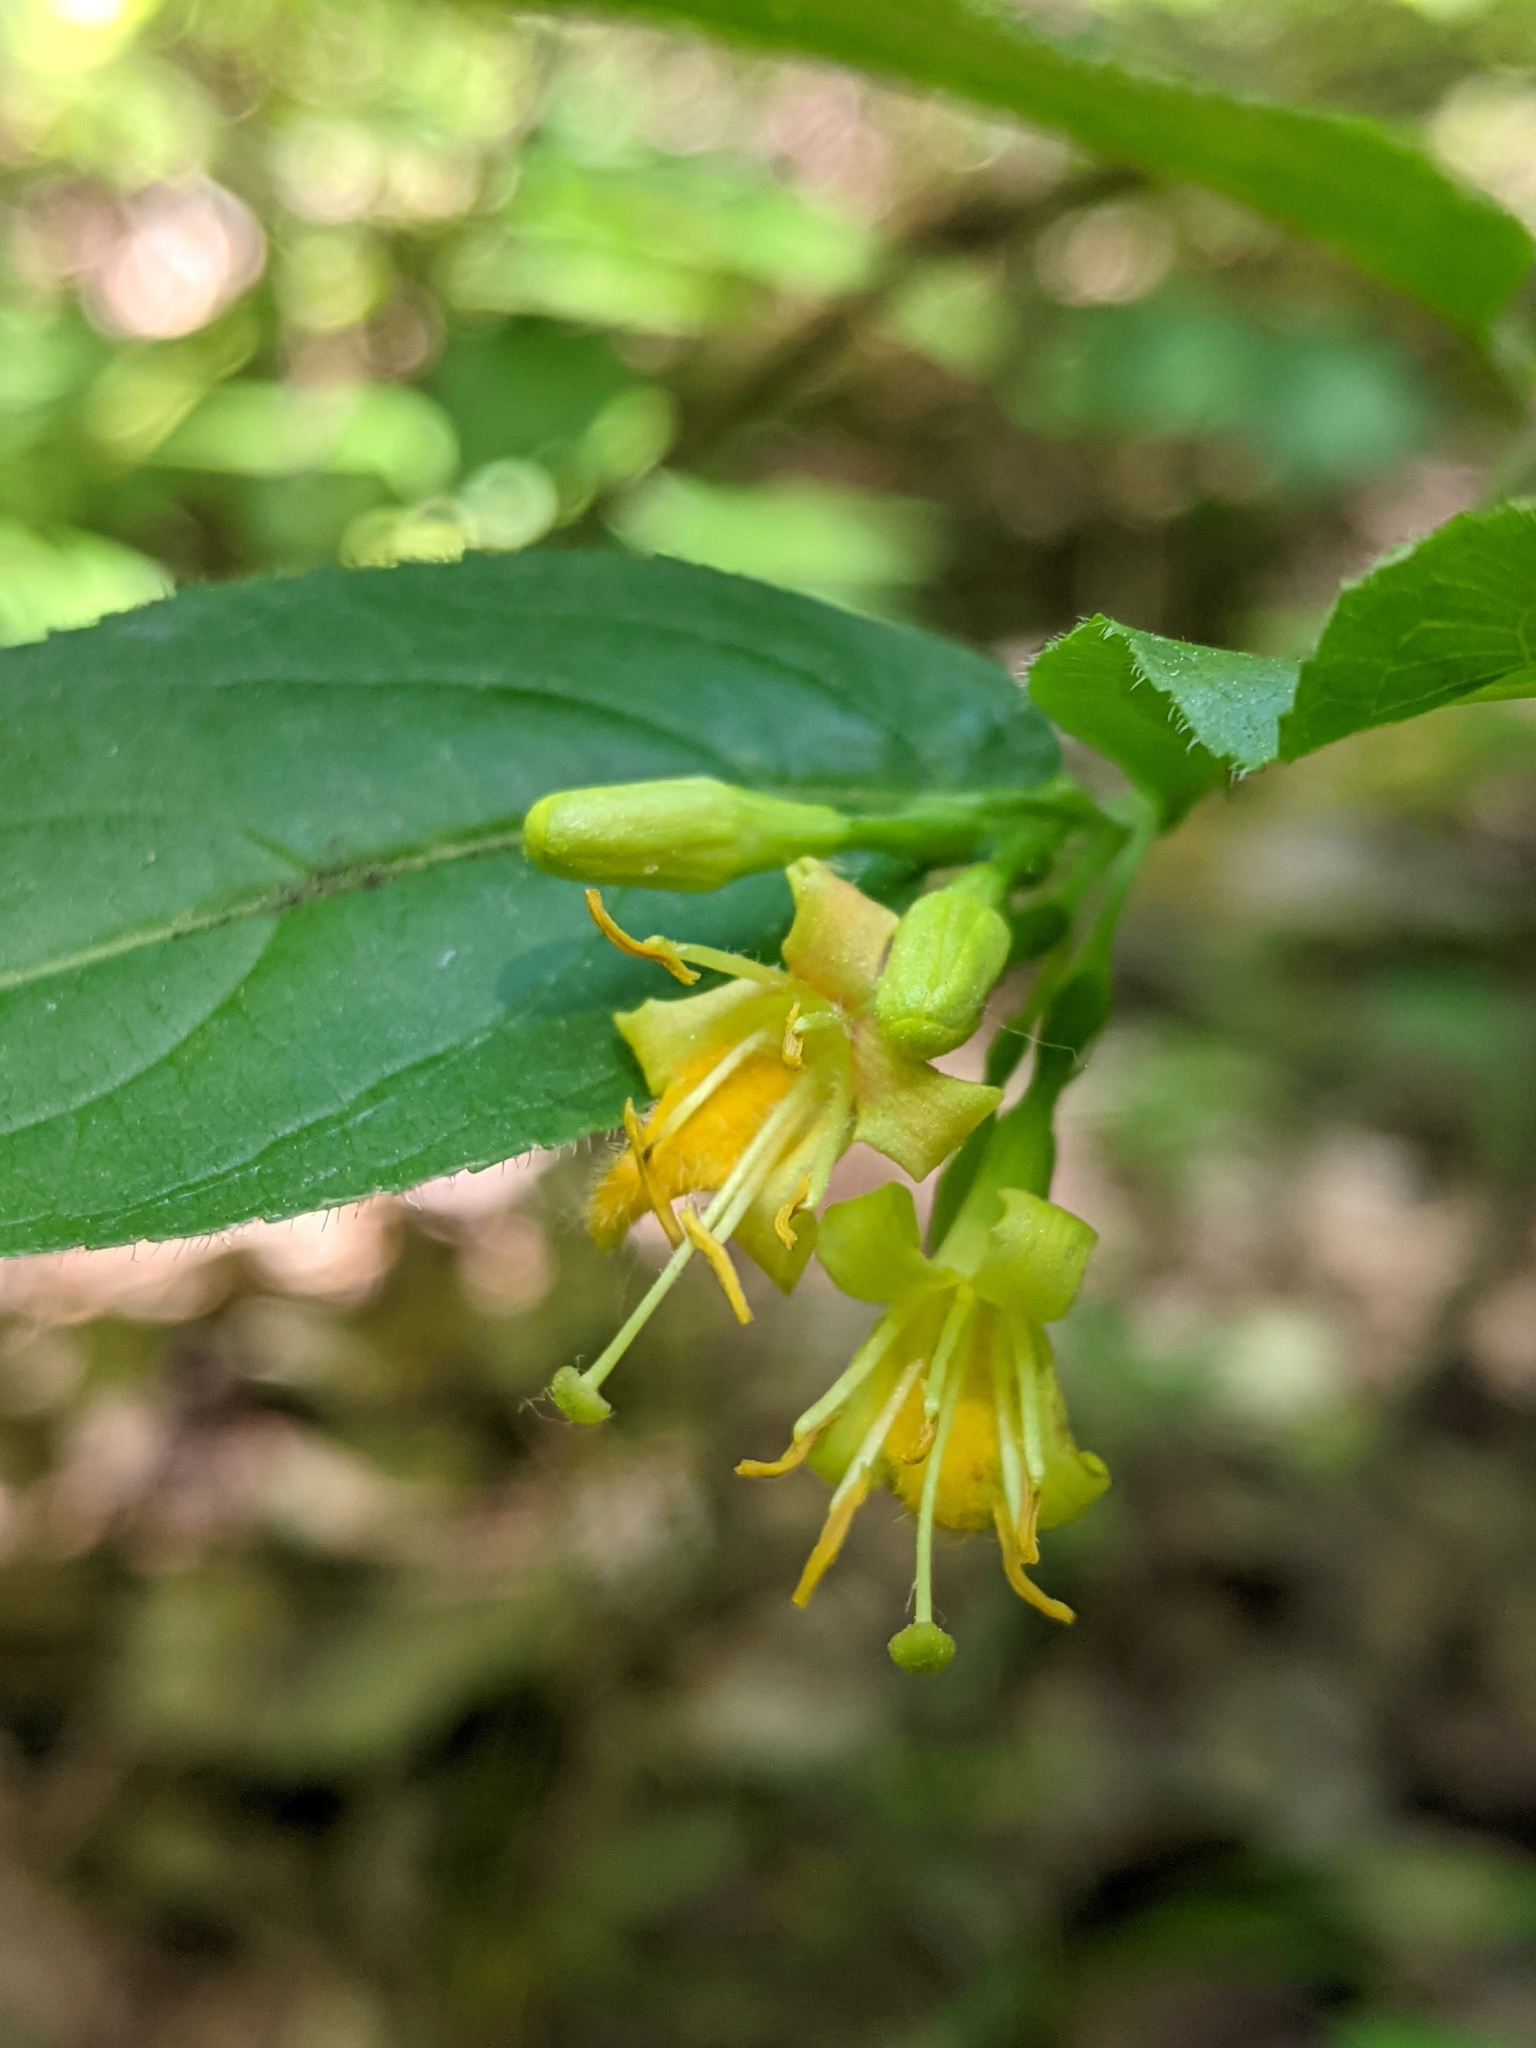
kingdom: Plantae
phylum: Tracheophyta
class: Magnoliopsida
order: Dipsacales
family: Caprifoliaceae
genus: Diervilla
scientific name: Diervilla lonicera
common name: Bush-honeysuckle
